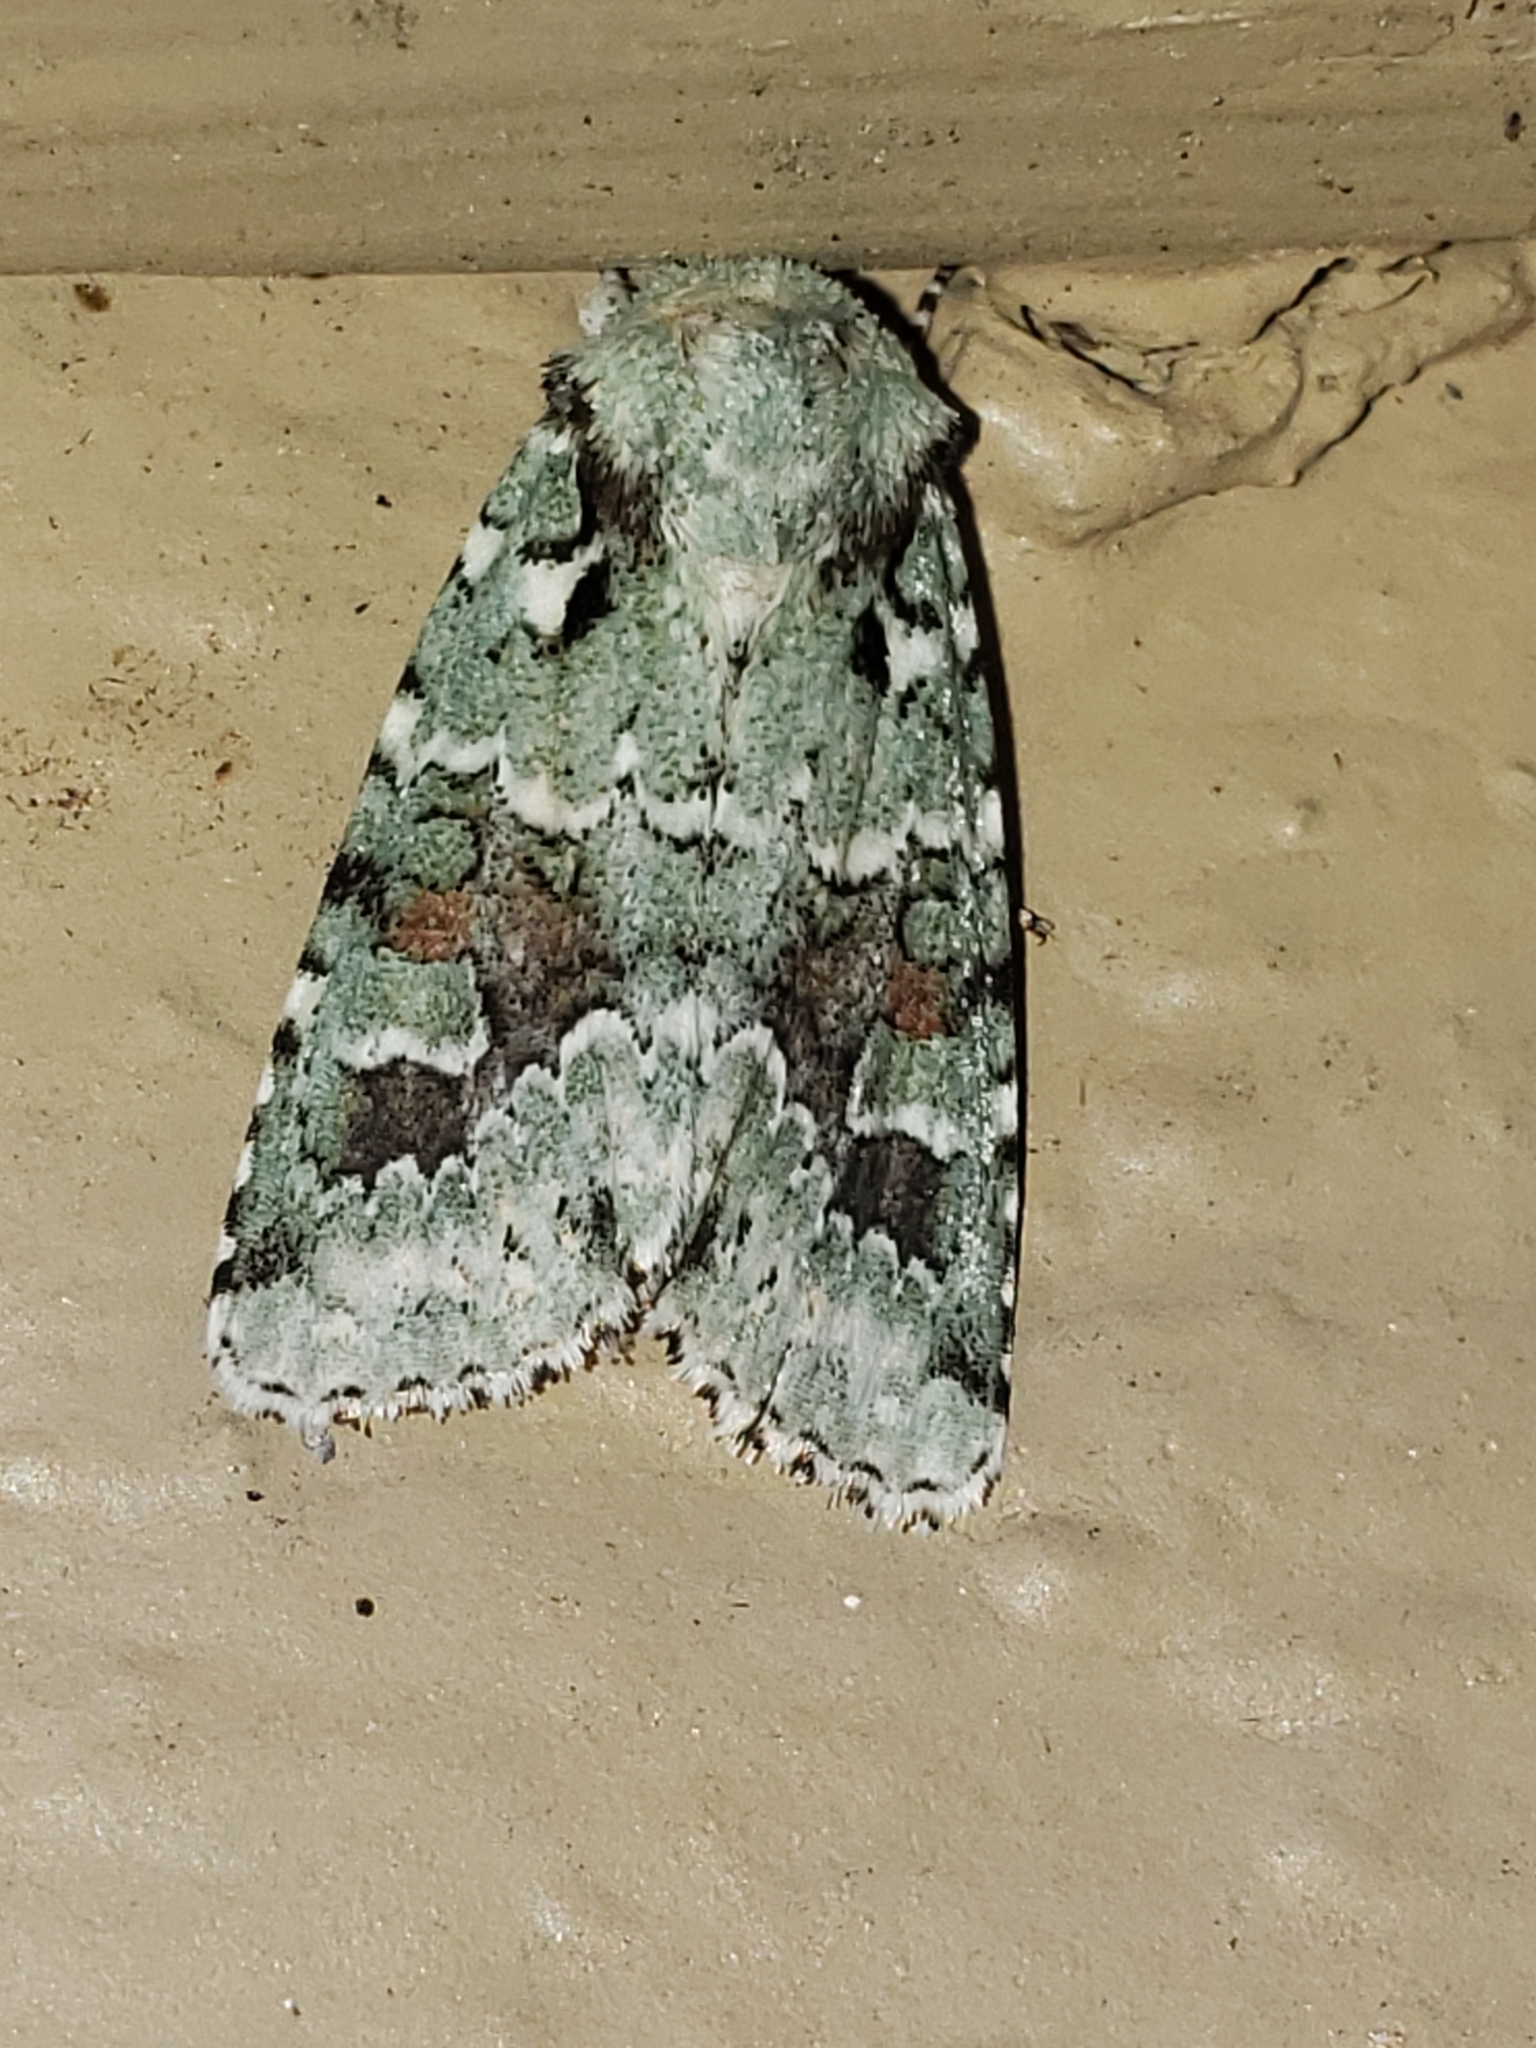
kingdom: Animalia
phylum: Arthropoda
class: Insecta
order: Lepidoptera
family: Noctuidae
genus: Lacinipolia
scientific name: Lacinipolia laudabilis
